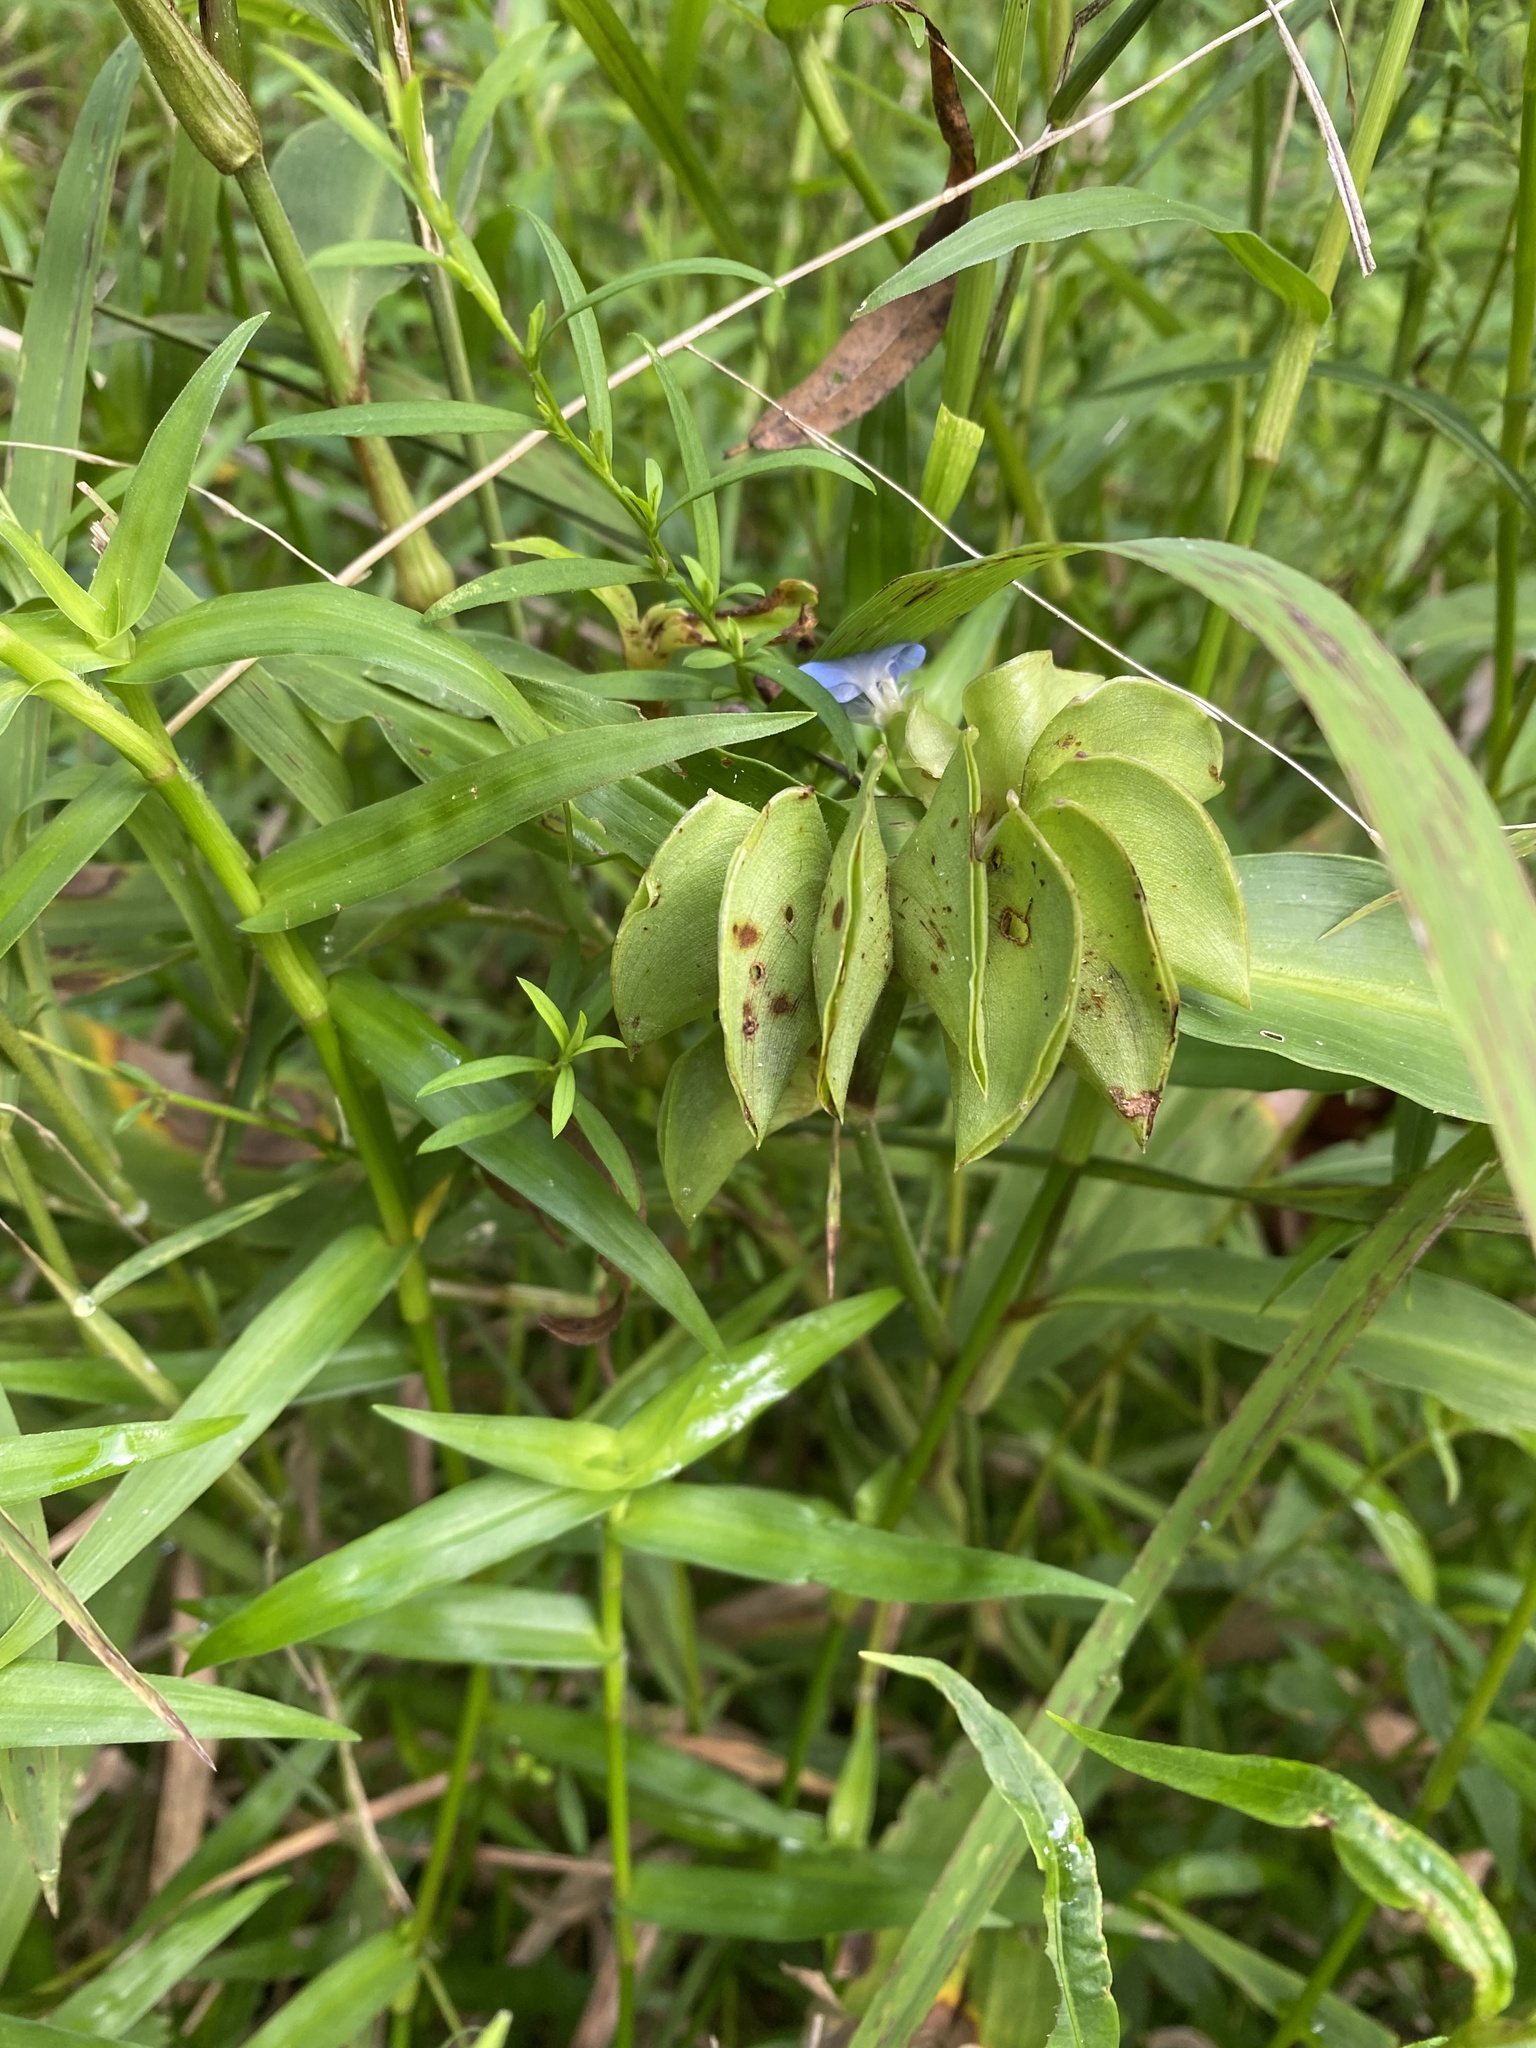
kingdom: Plantae
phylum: Tracheophyta
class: Liliopsida
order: Commelinales
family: Commelinaceae
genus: Commelina
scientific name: Commelina virginica
